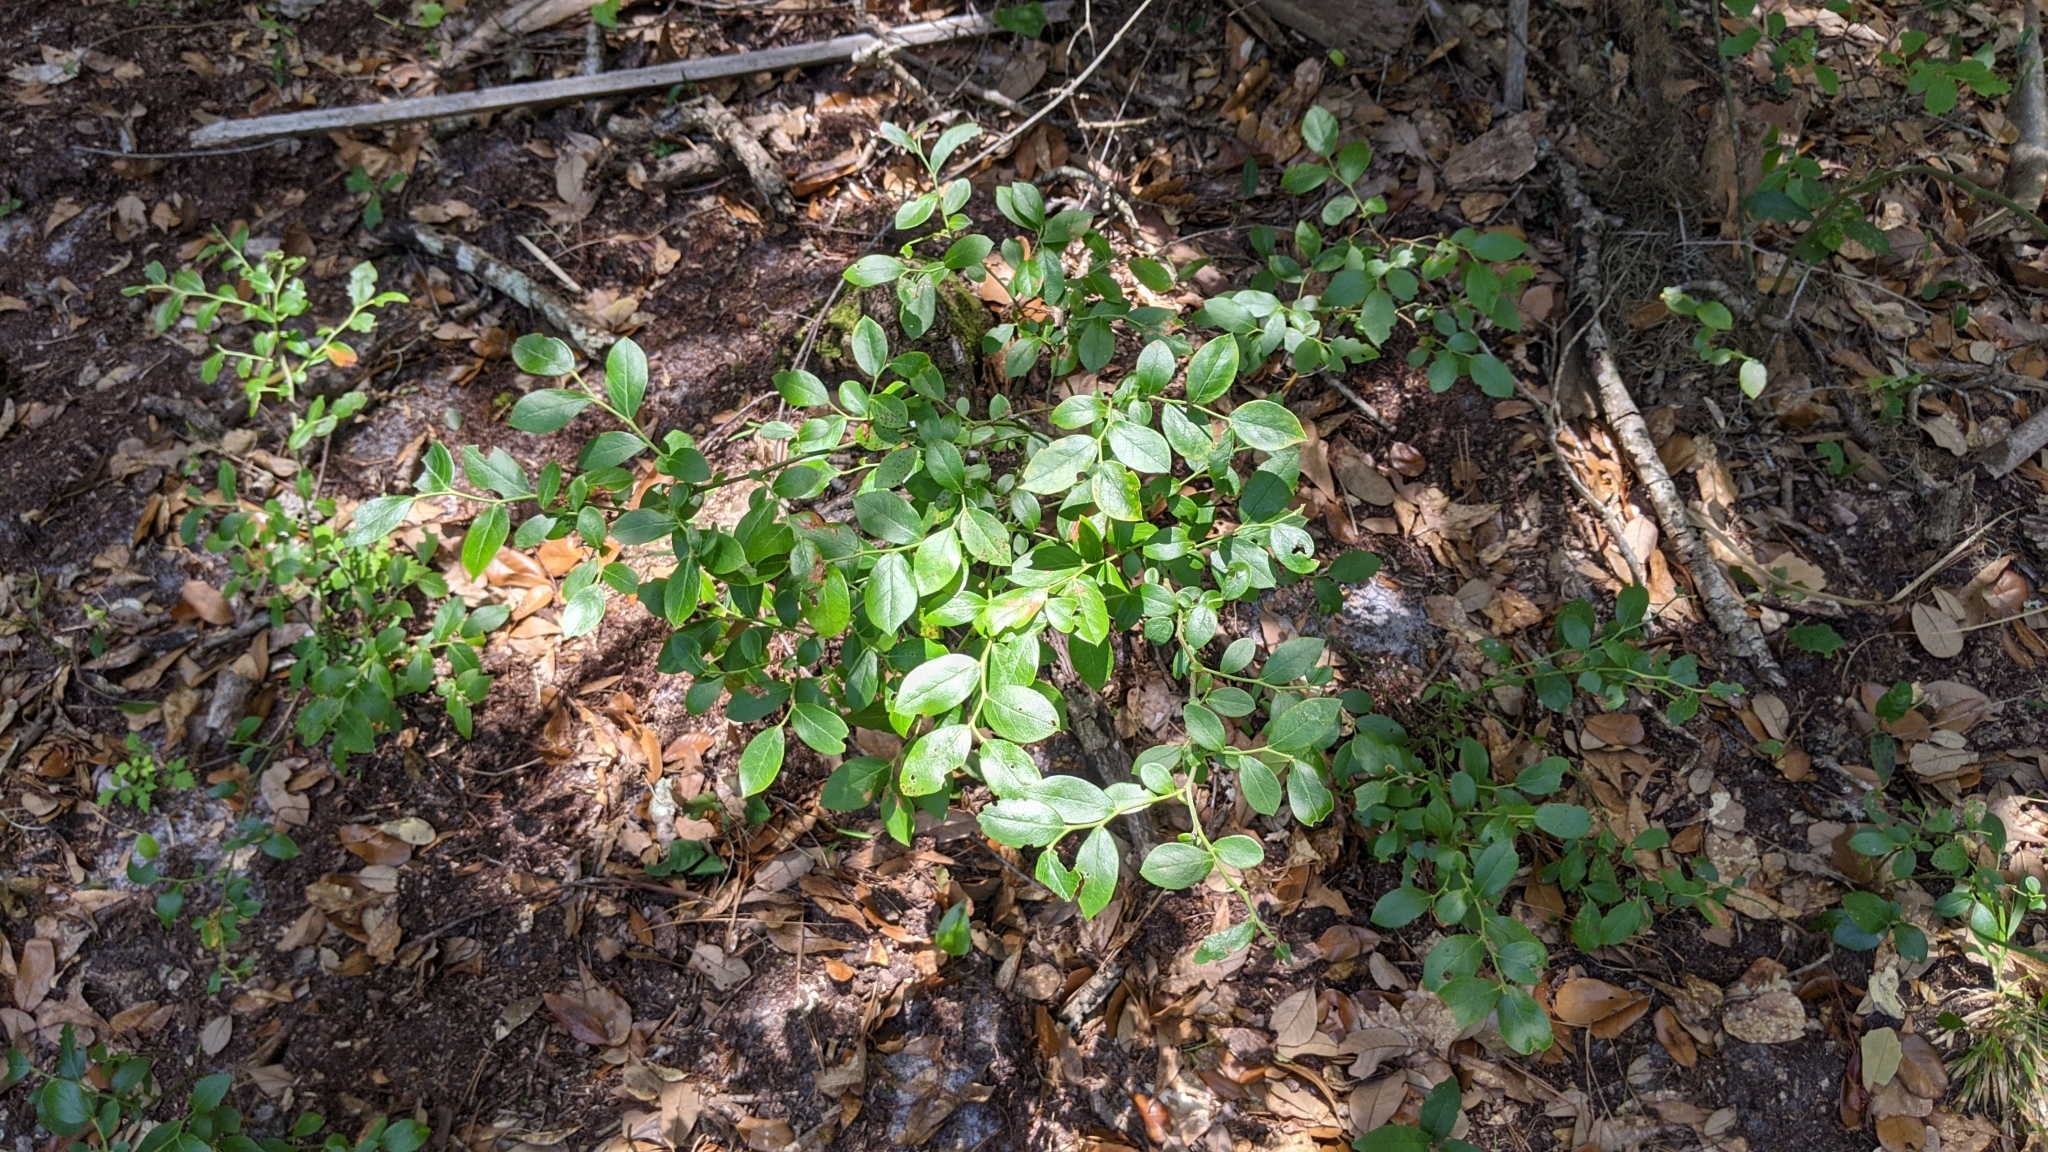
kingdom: Plantae
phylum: Tracheophyta
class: Magnoliopsida
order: Ericales
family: Ericaceae
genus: Vaccinium
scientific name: Vaccinium corymbosum
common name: Blueberry
